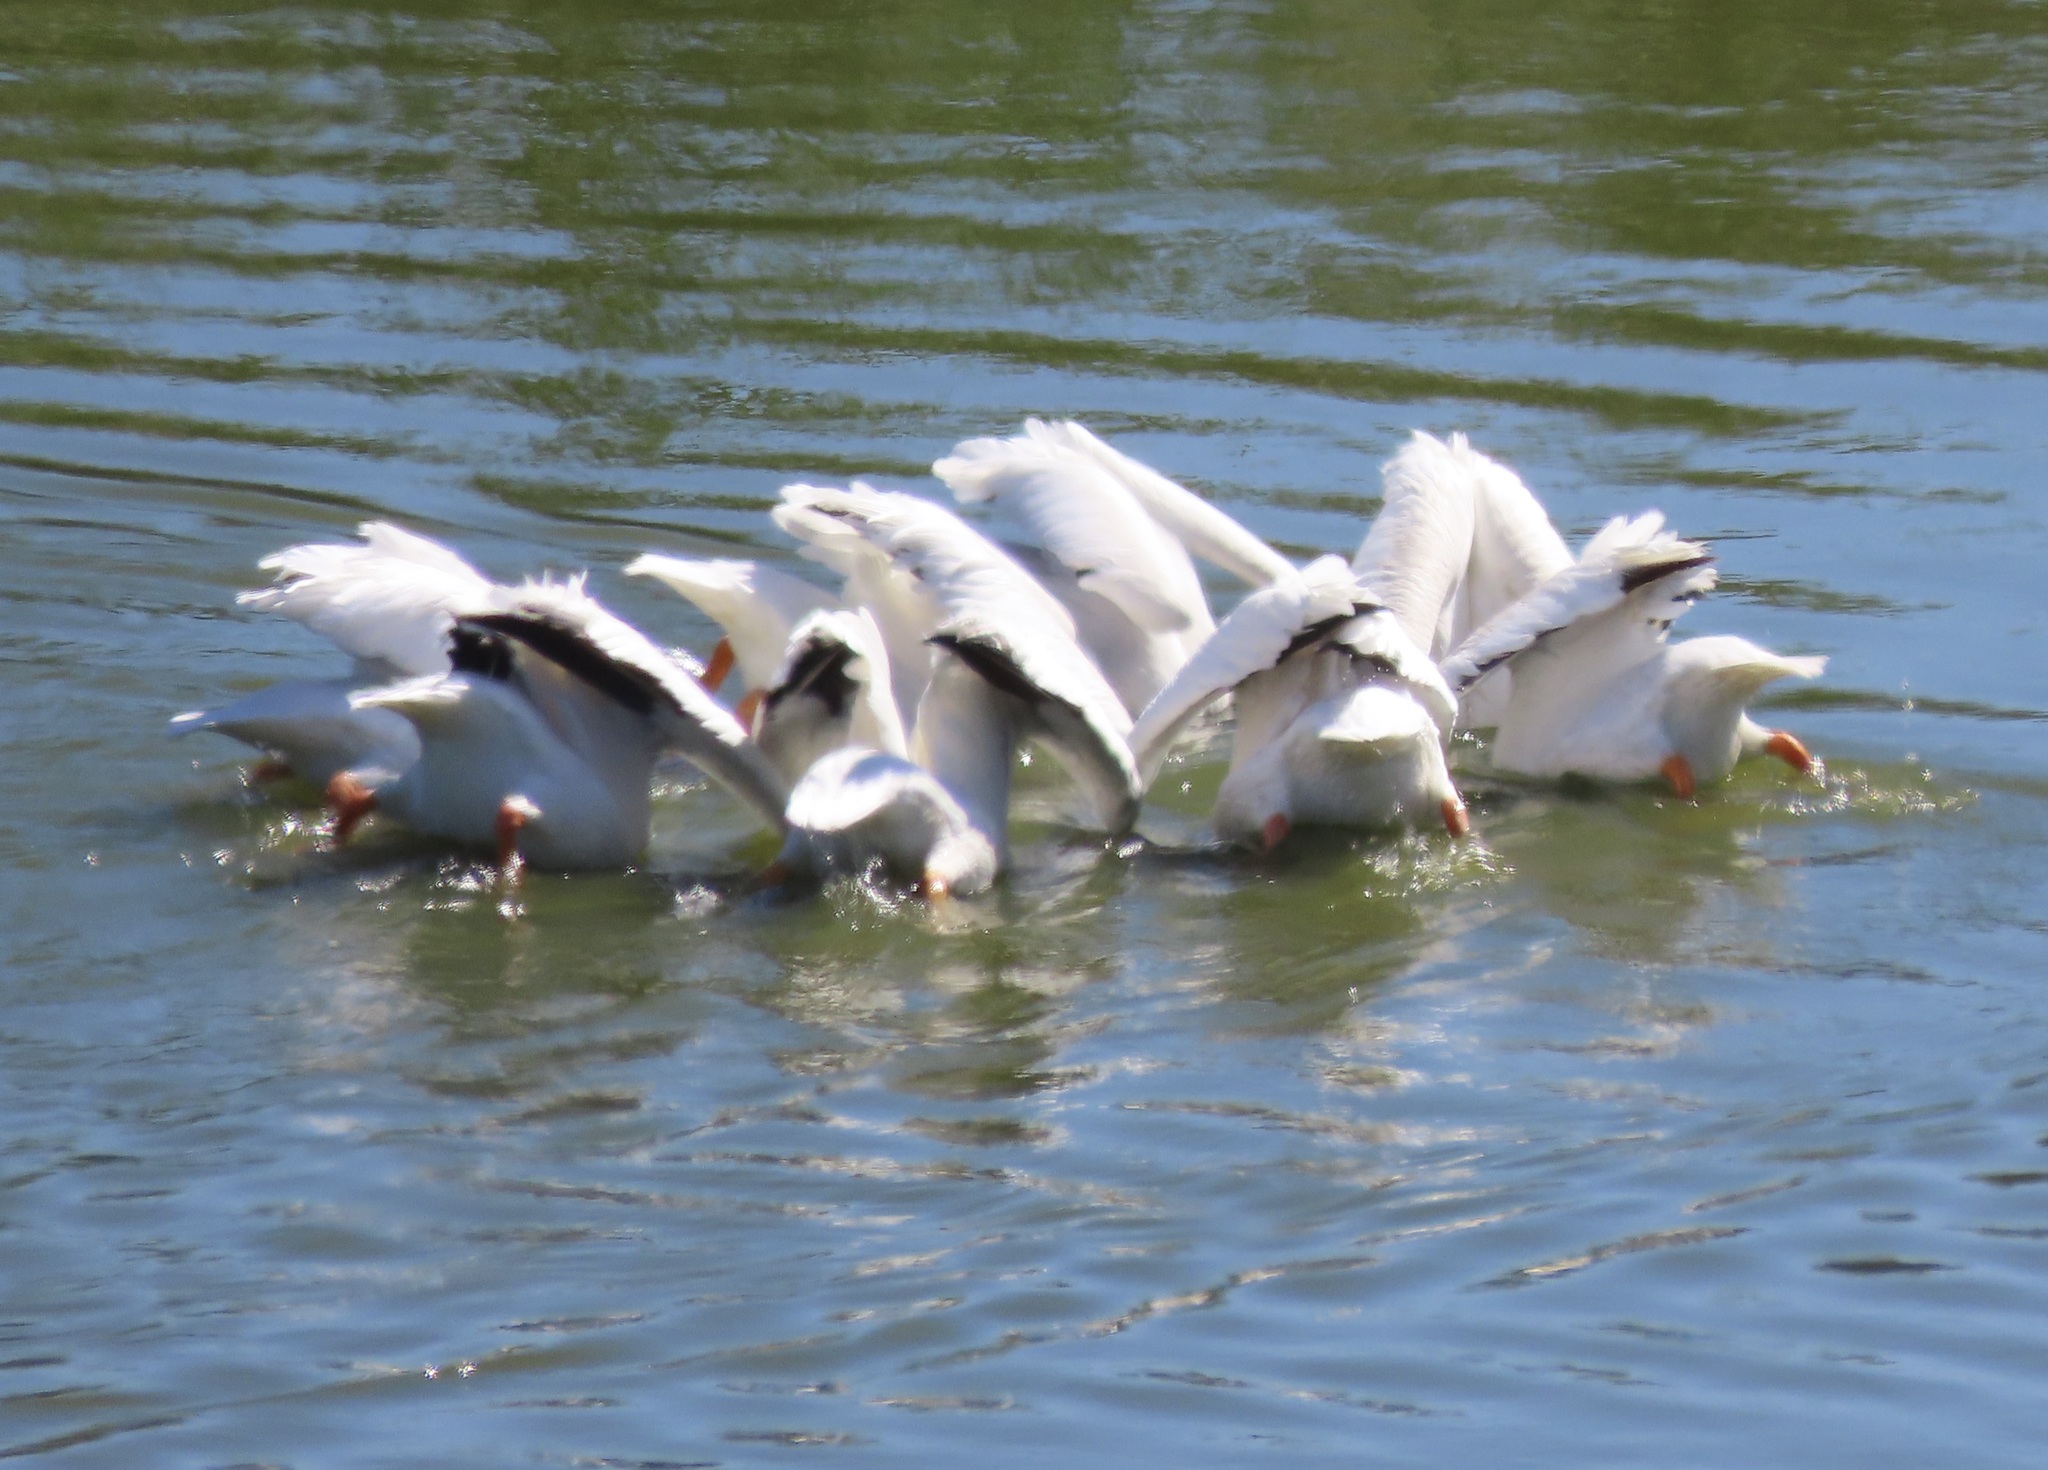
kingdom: Animalia
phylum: Chordata
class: Aves
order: Pelecaniformes
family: Pelecanidae
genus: Pelecanus
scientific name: Pelecanus erythrorhynchos
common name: American white pelican
